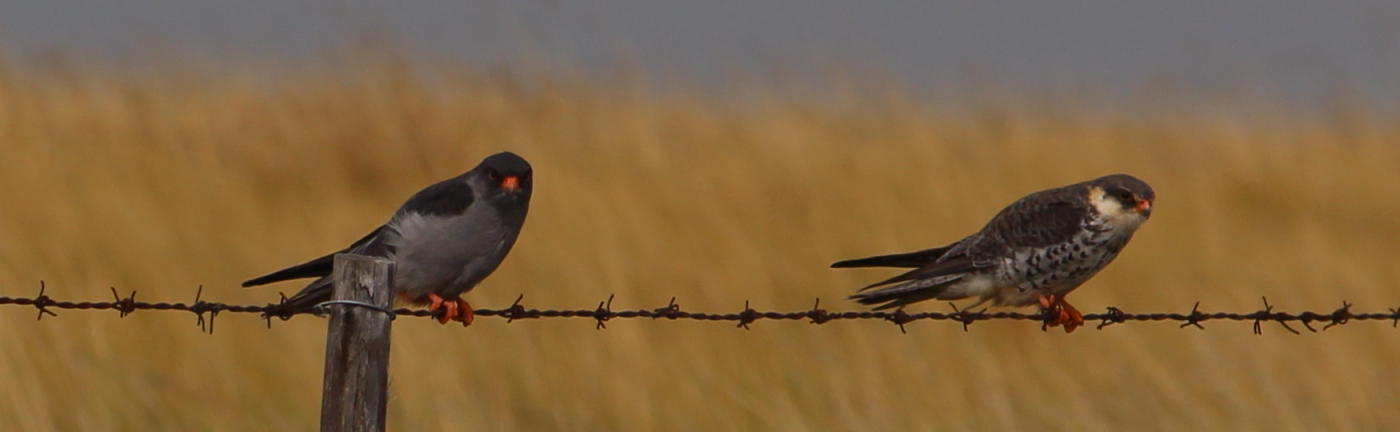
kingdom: Animalia
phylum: Chordata
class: Aves
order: Falconiformes
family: Falconidae
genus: Falco
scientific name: Falco amurensis
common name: Amur falcon
